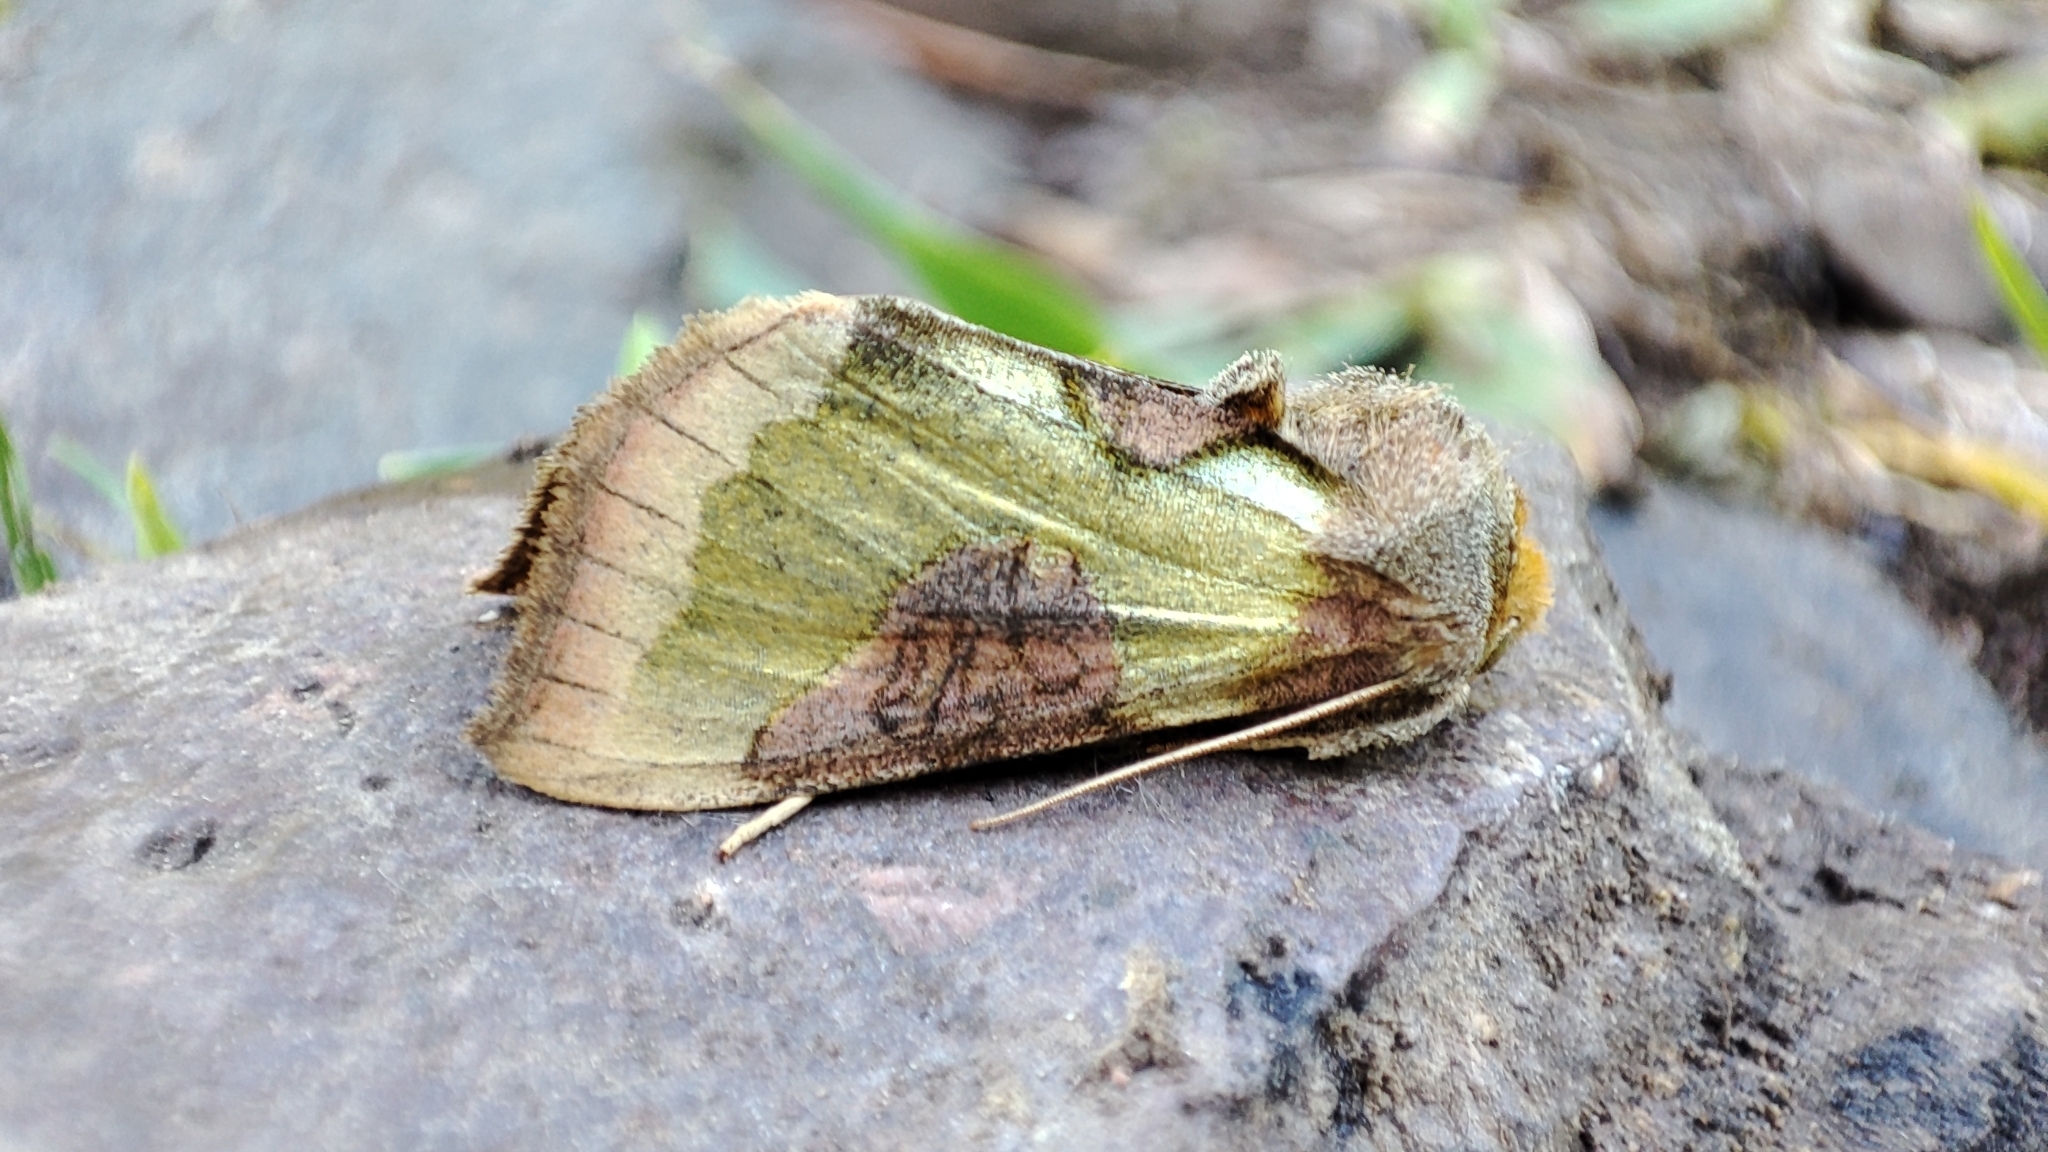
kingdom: Animalia
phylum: Arthropoda
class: Insecta
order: Lepidoptera
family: Noctuidae
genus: Diachrysia
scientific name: Diachrysia stenochrysis
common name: Cryptic burnished brass
